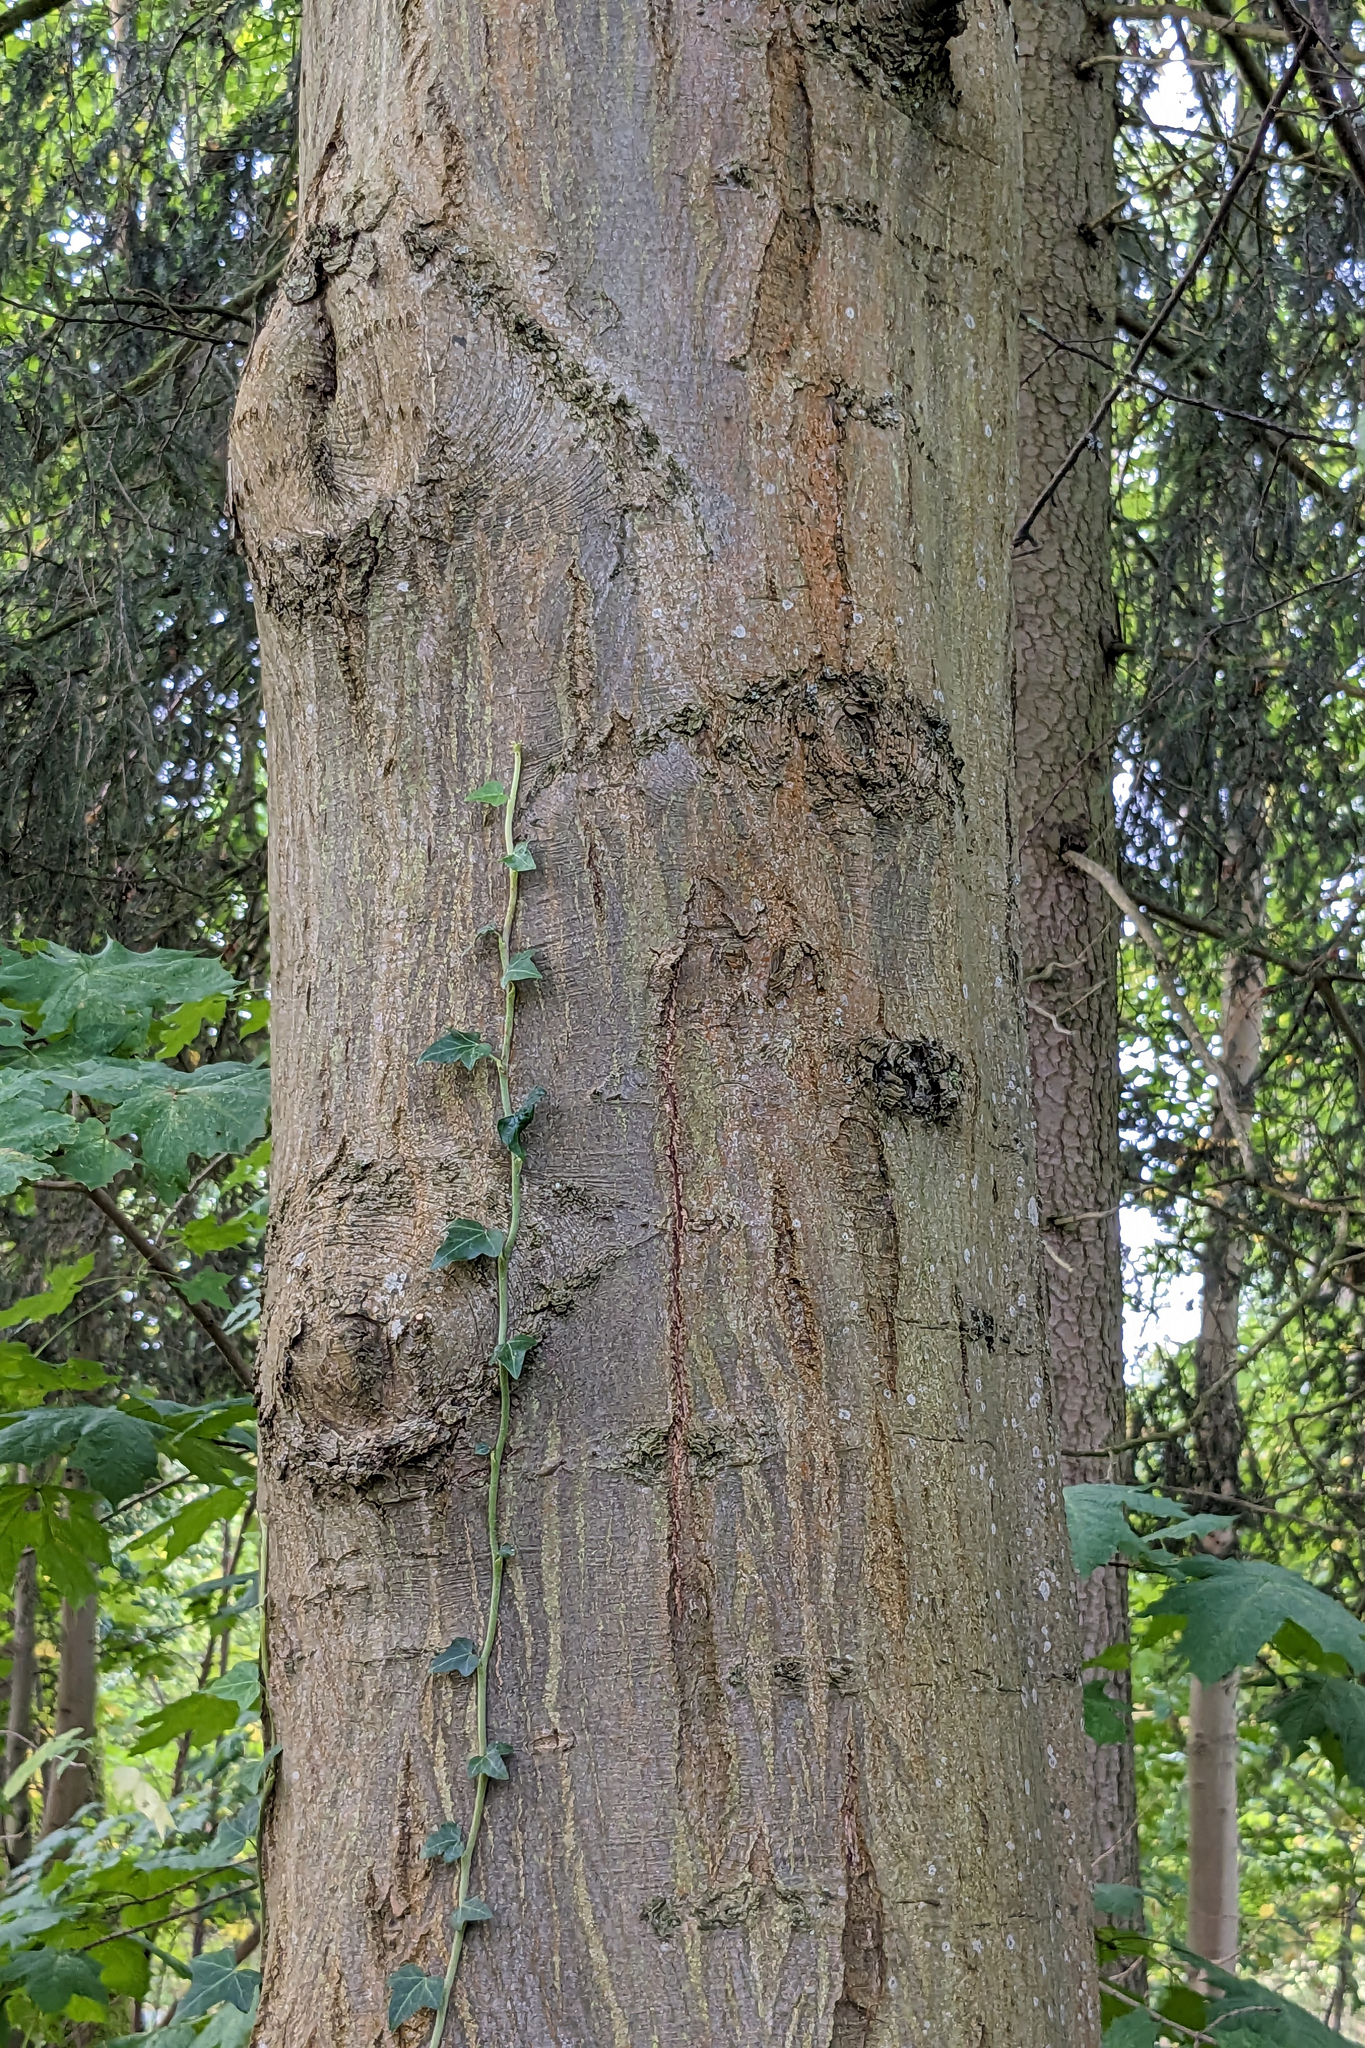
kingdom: Plantae
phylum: Tracheophyta
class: Magnoliopsida
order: Fagales
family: Betulaceae
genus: Carpinus
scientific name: Carpinus betulus
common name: Hornbeam
